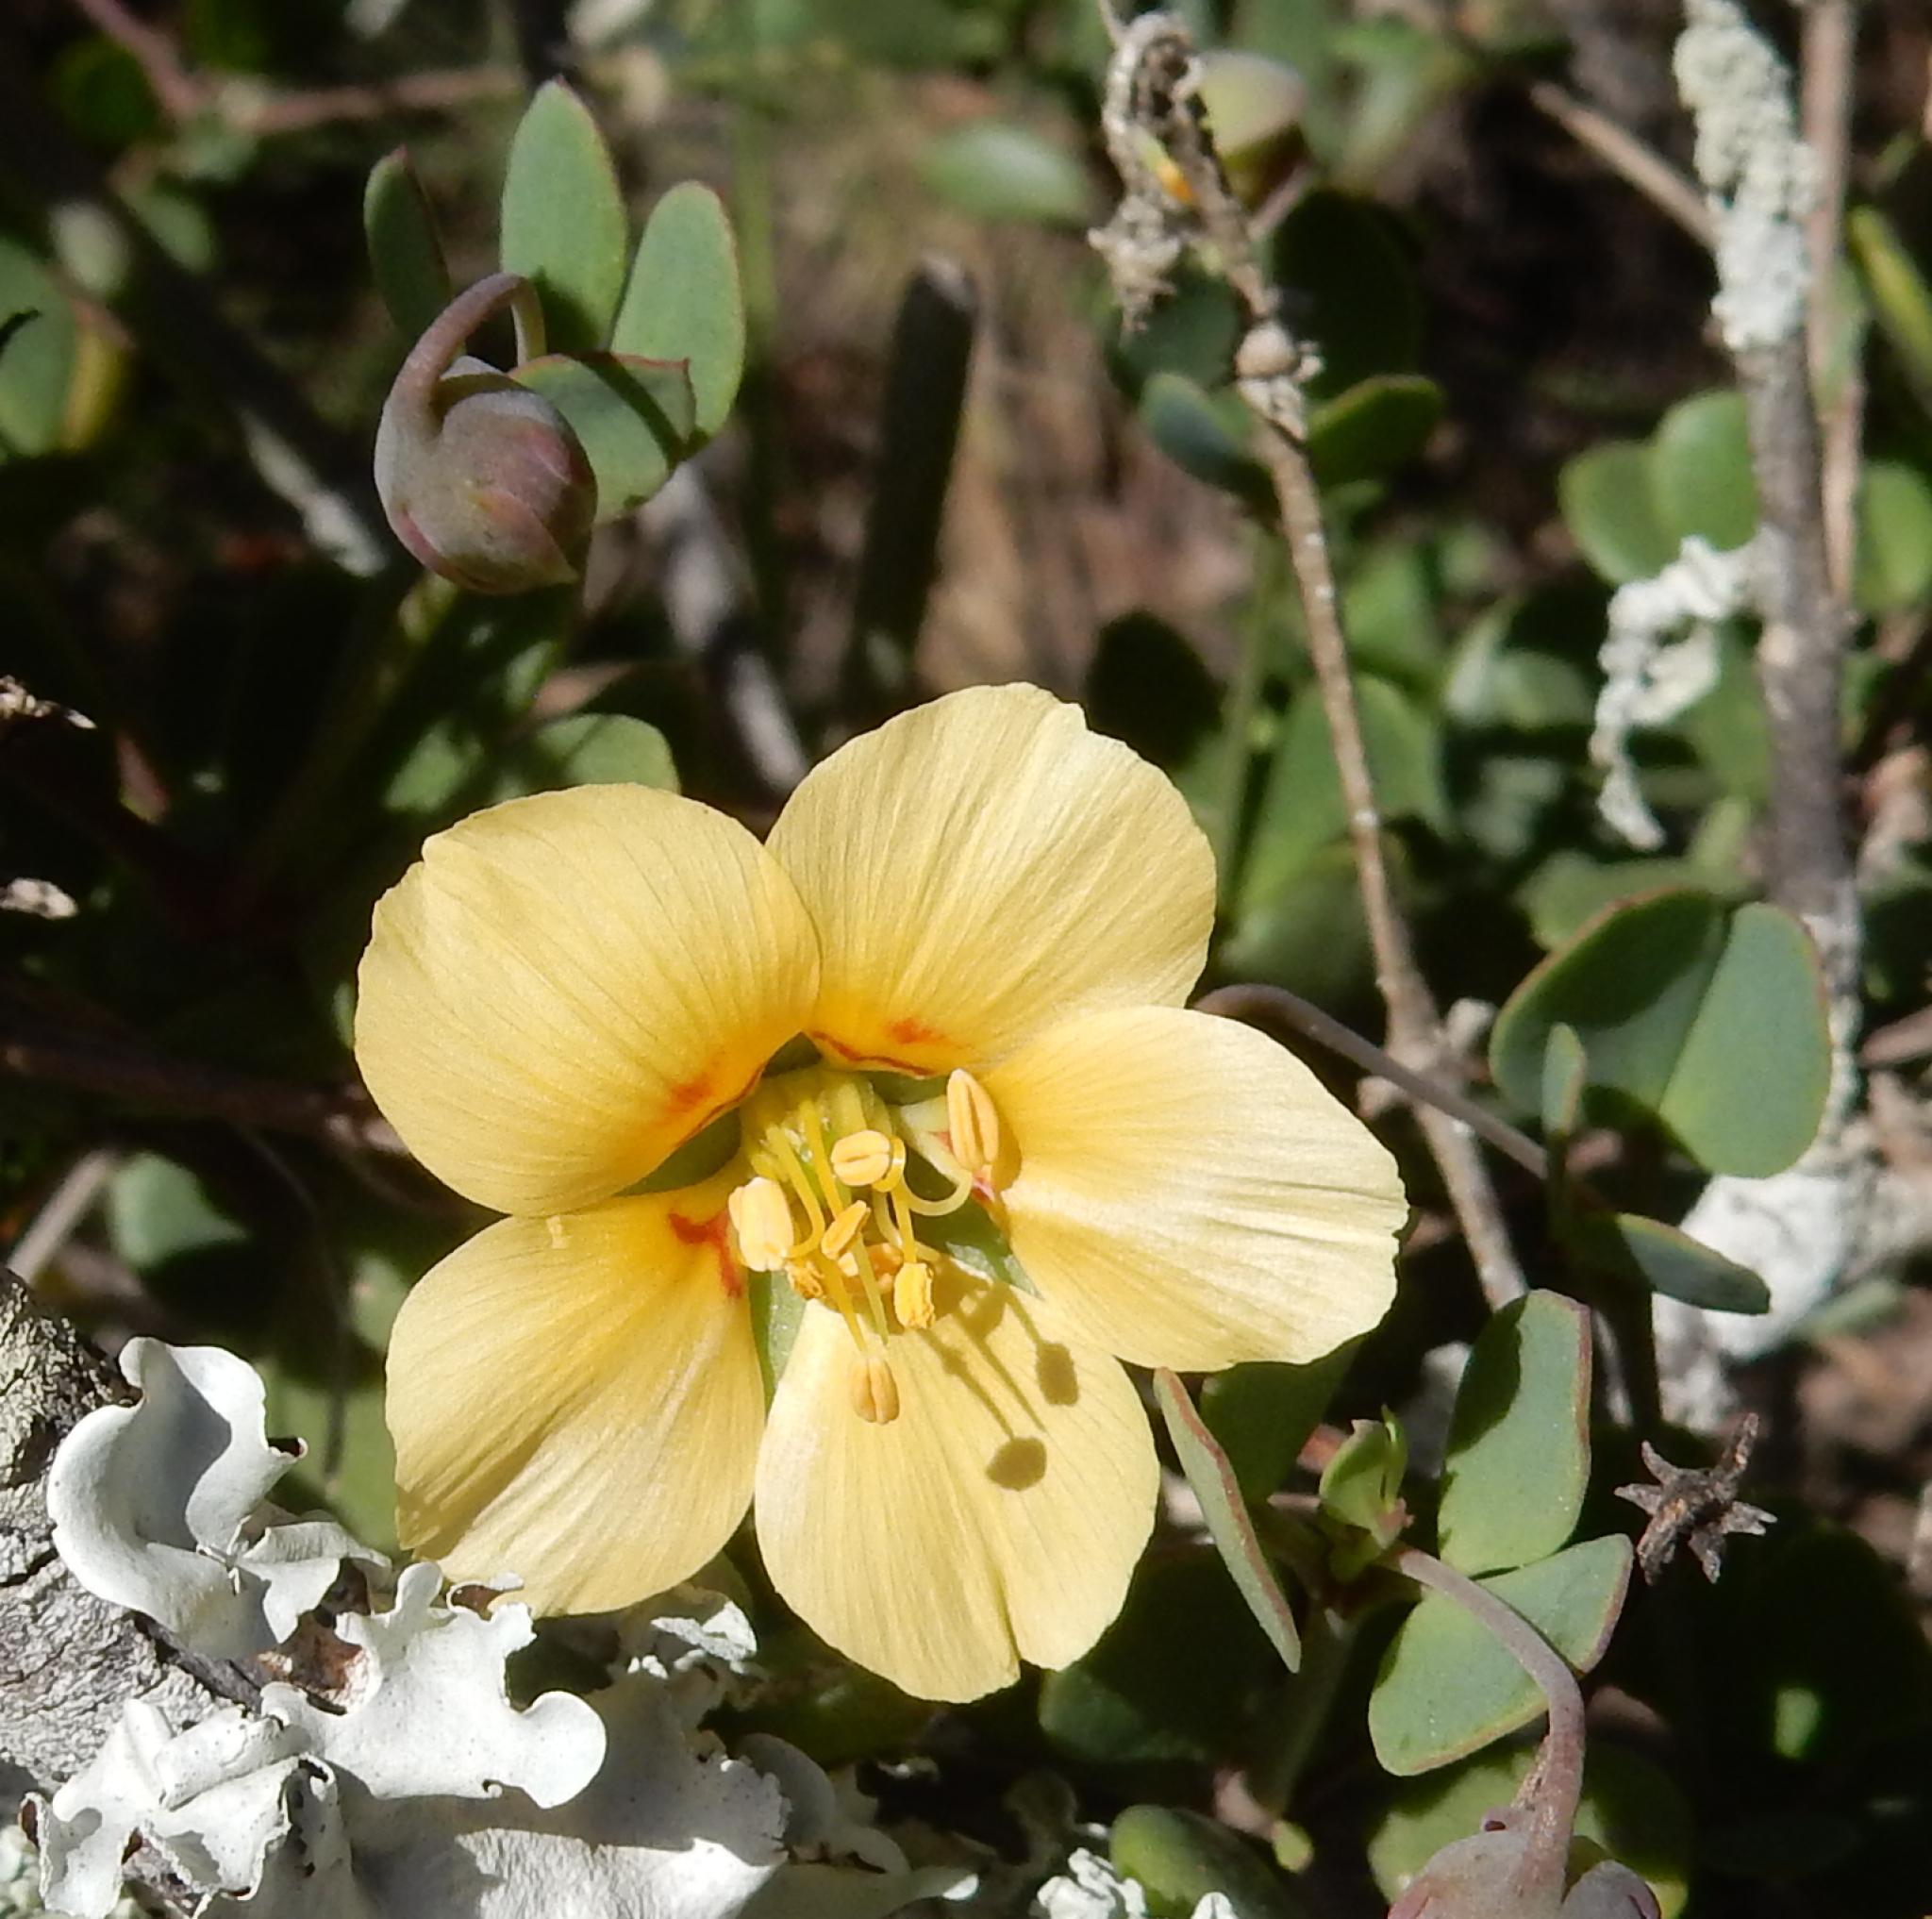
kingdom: Plantae
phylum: Tracheophyta
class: Magnoliopsida
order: Zygophyllales
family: Zygophyllaceae
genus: Roepera
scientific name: Roepera maritima
